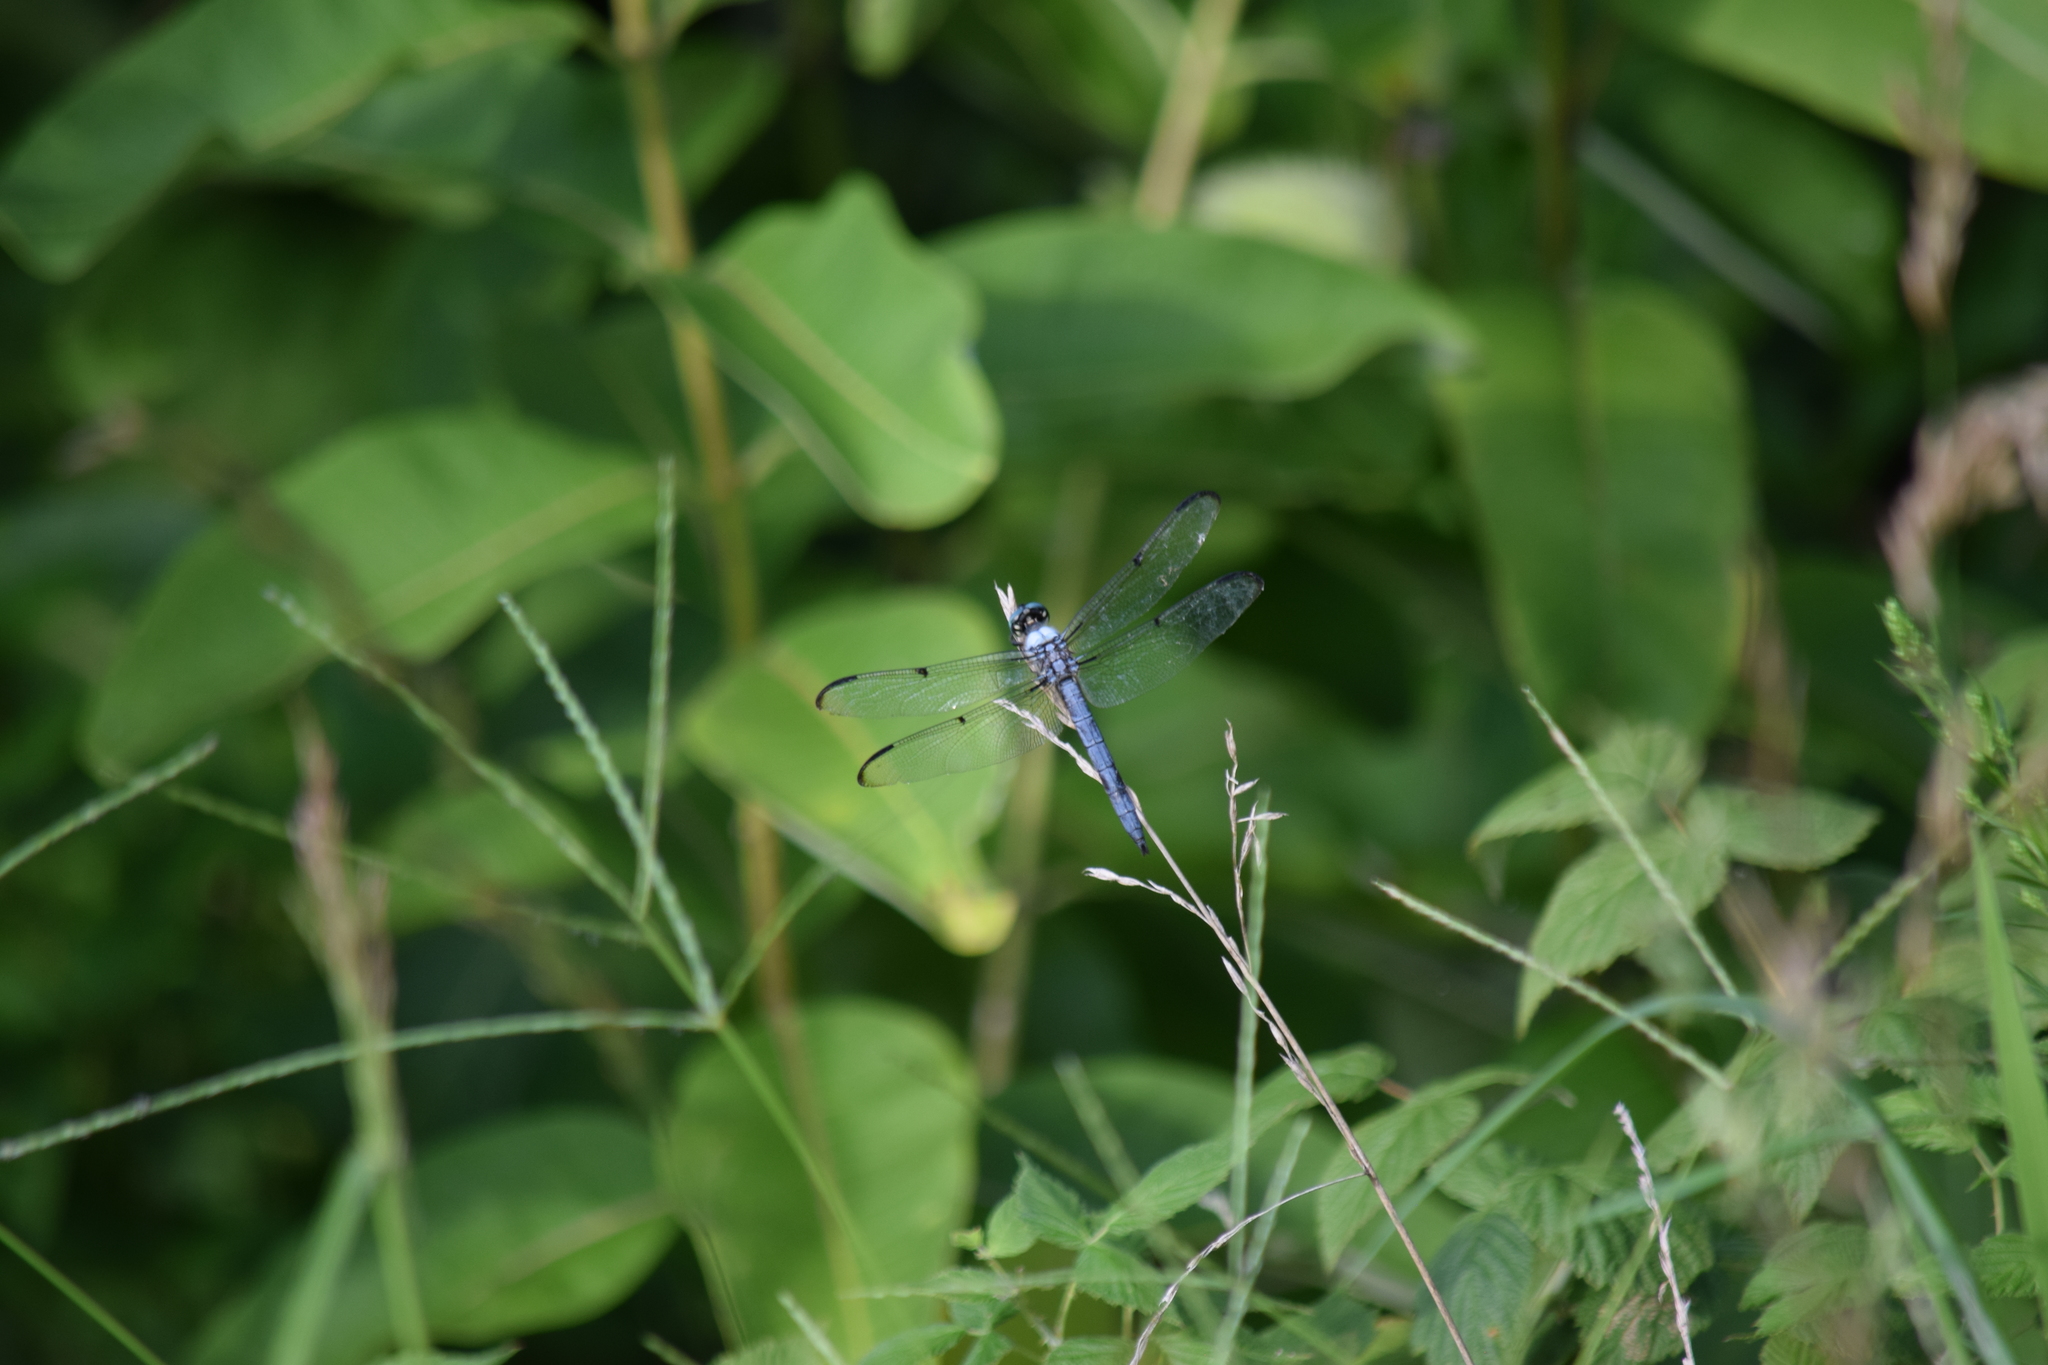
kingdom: Animalia
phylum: Arthropoda
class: Insecta
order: Odonata
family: Libellulidae
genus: Libellula
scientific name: Libellula vibrans
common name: Great blue skimmer
